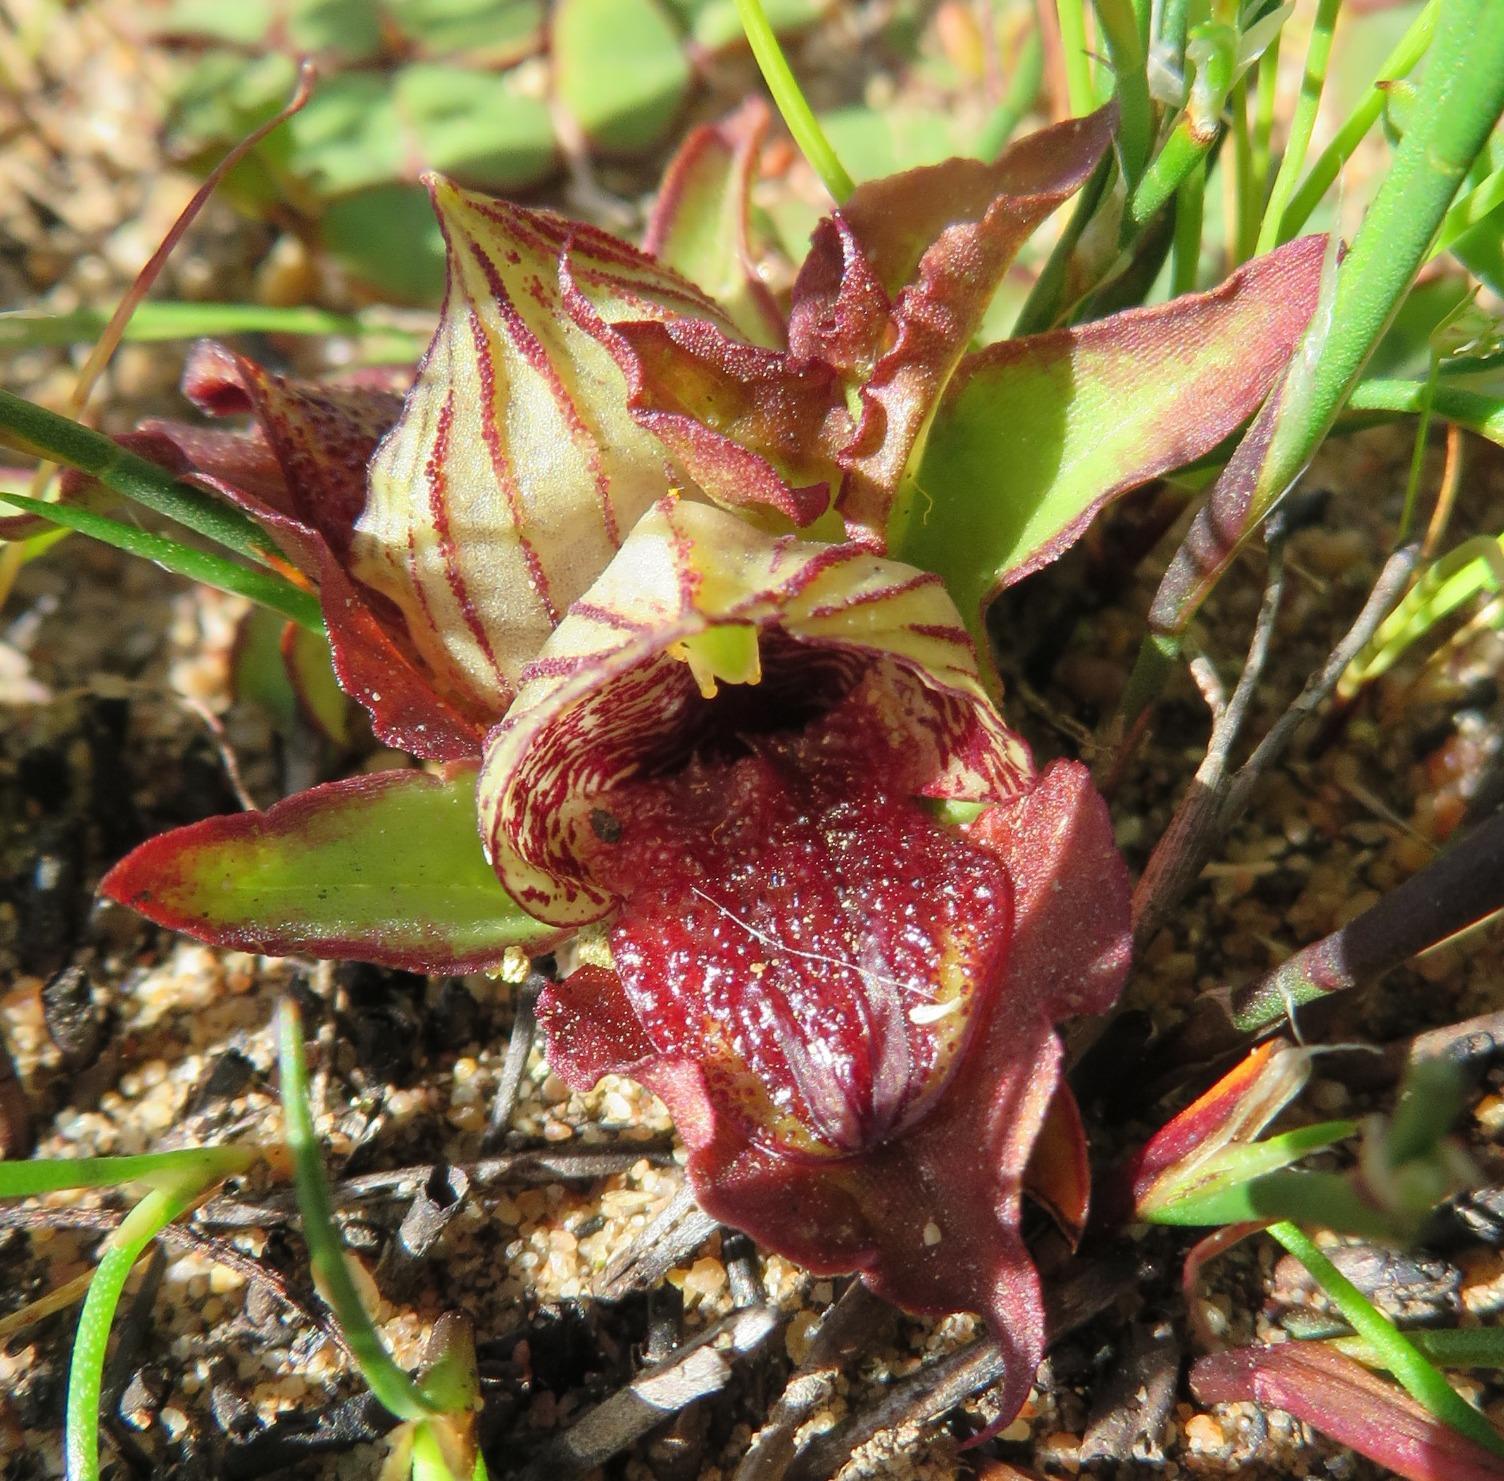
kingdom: Plantae
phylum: Tracheophyta
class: Liliopsida
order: Asparagales
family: Orchidaceae
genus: Satyrium
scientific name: Satyrium pumilum
